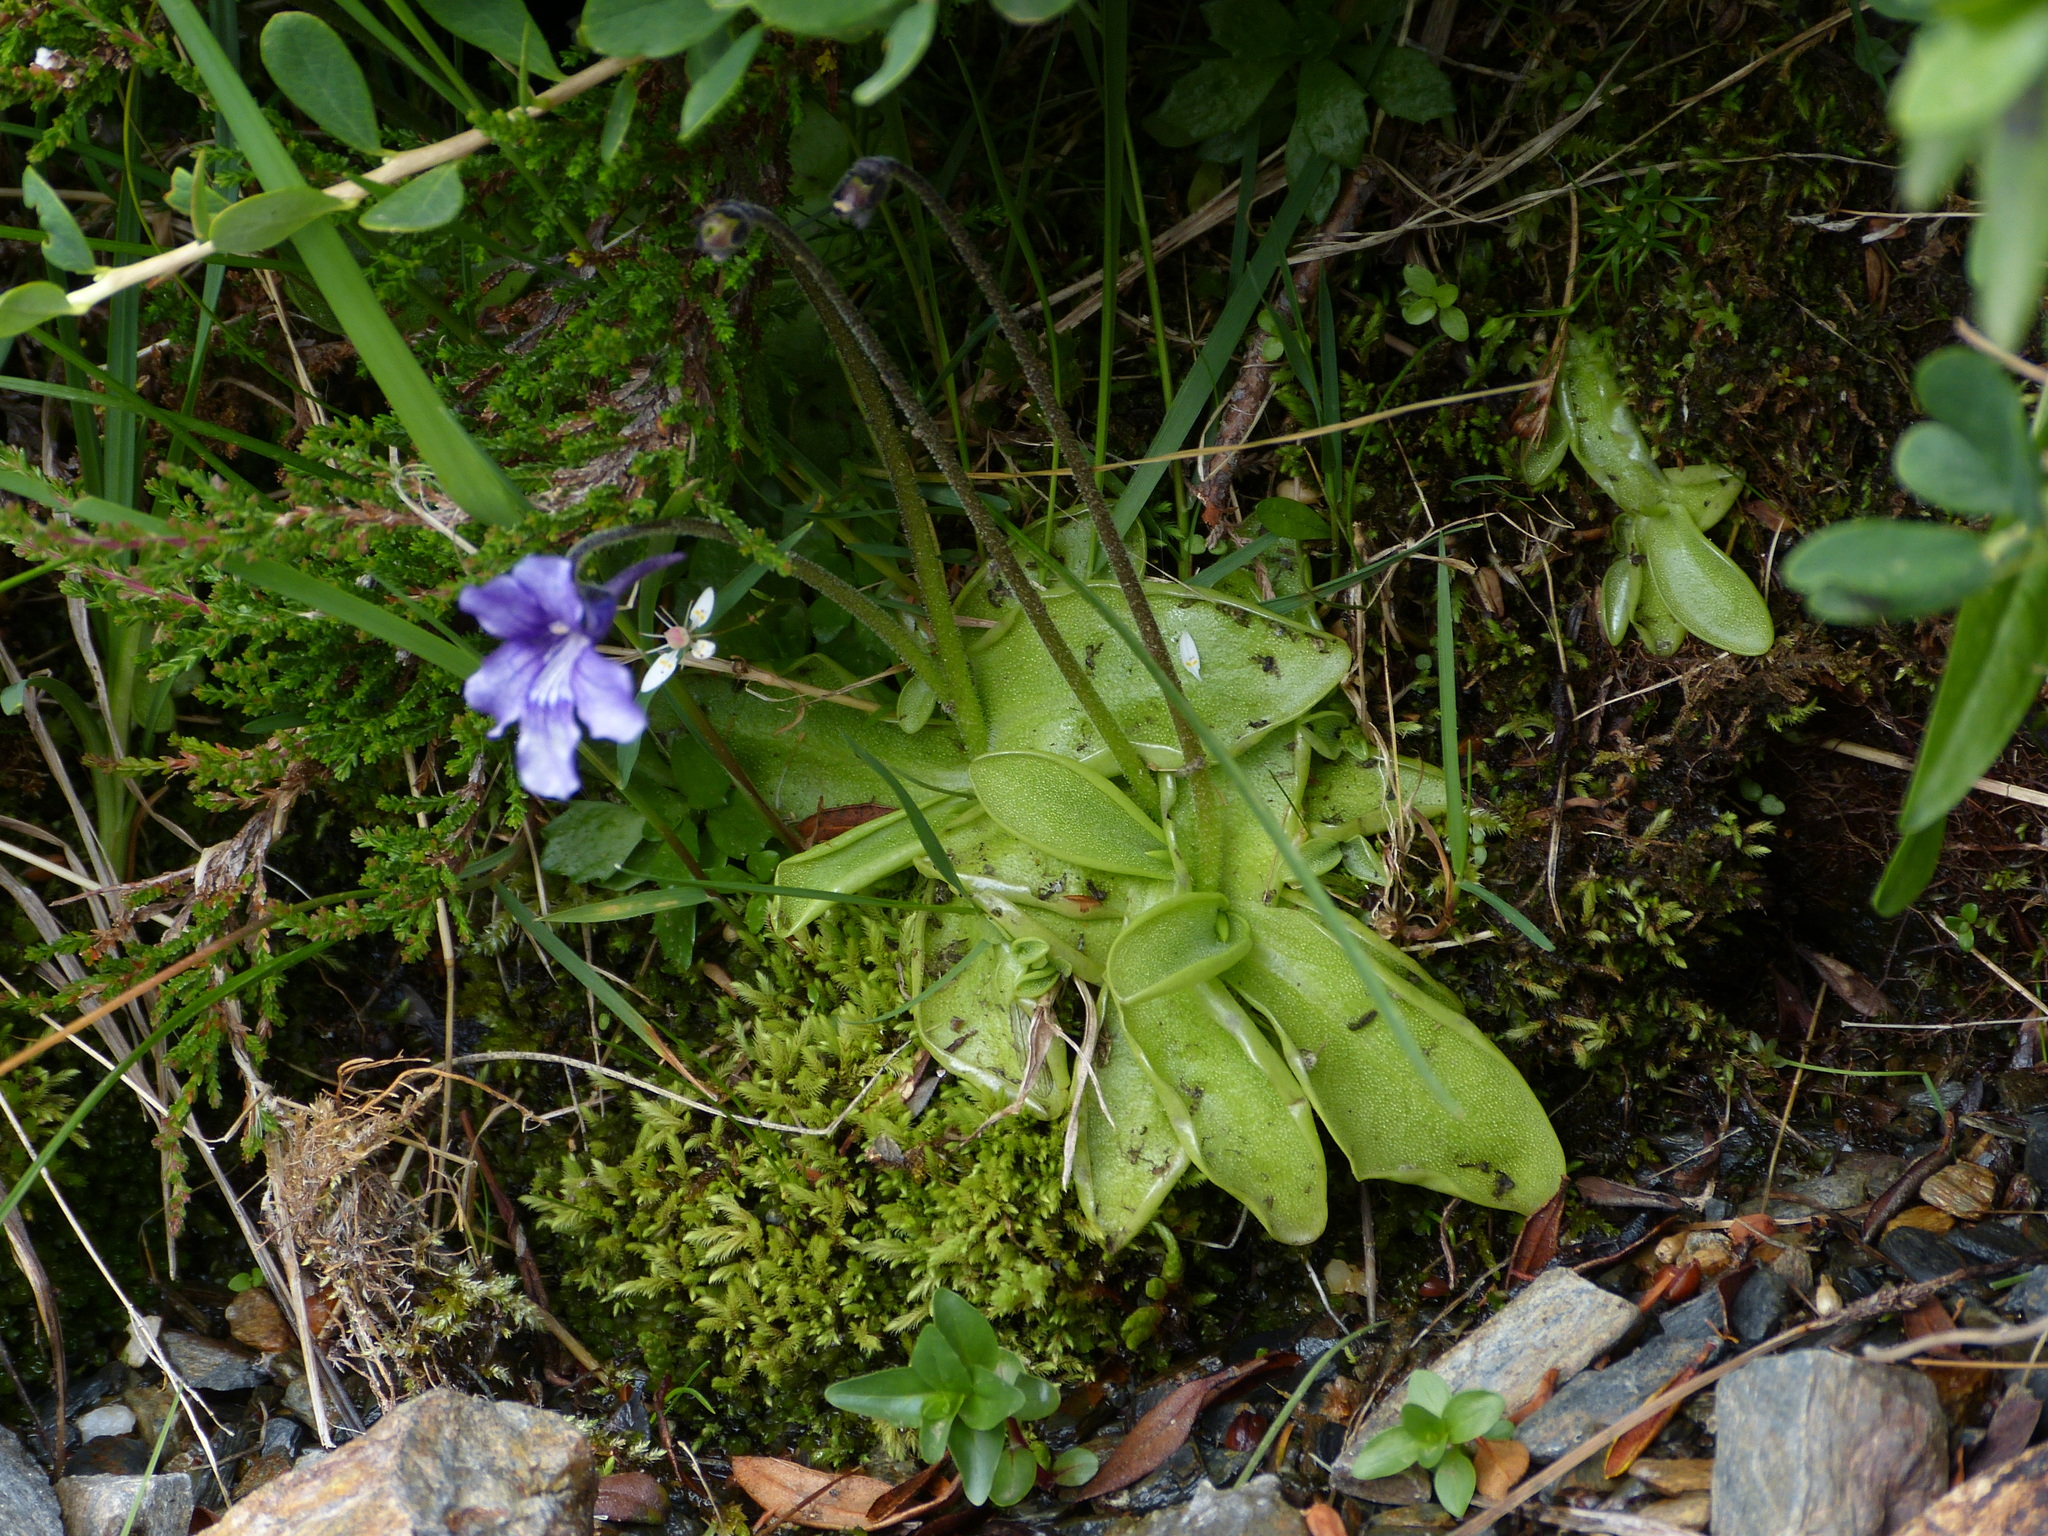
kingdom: Plantae
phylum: Tracheophyta
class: Magnoliopsida
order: Lamiales
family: Lentibulariaceae
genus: Pinguicula
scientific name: Pinguicula grandiflora
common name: Large-flowered butterwort
